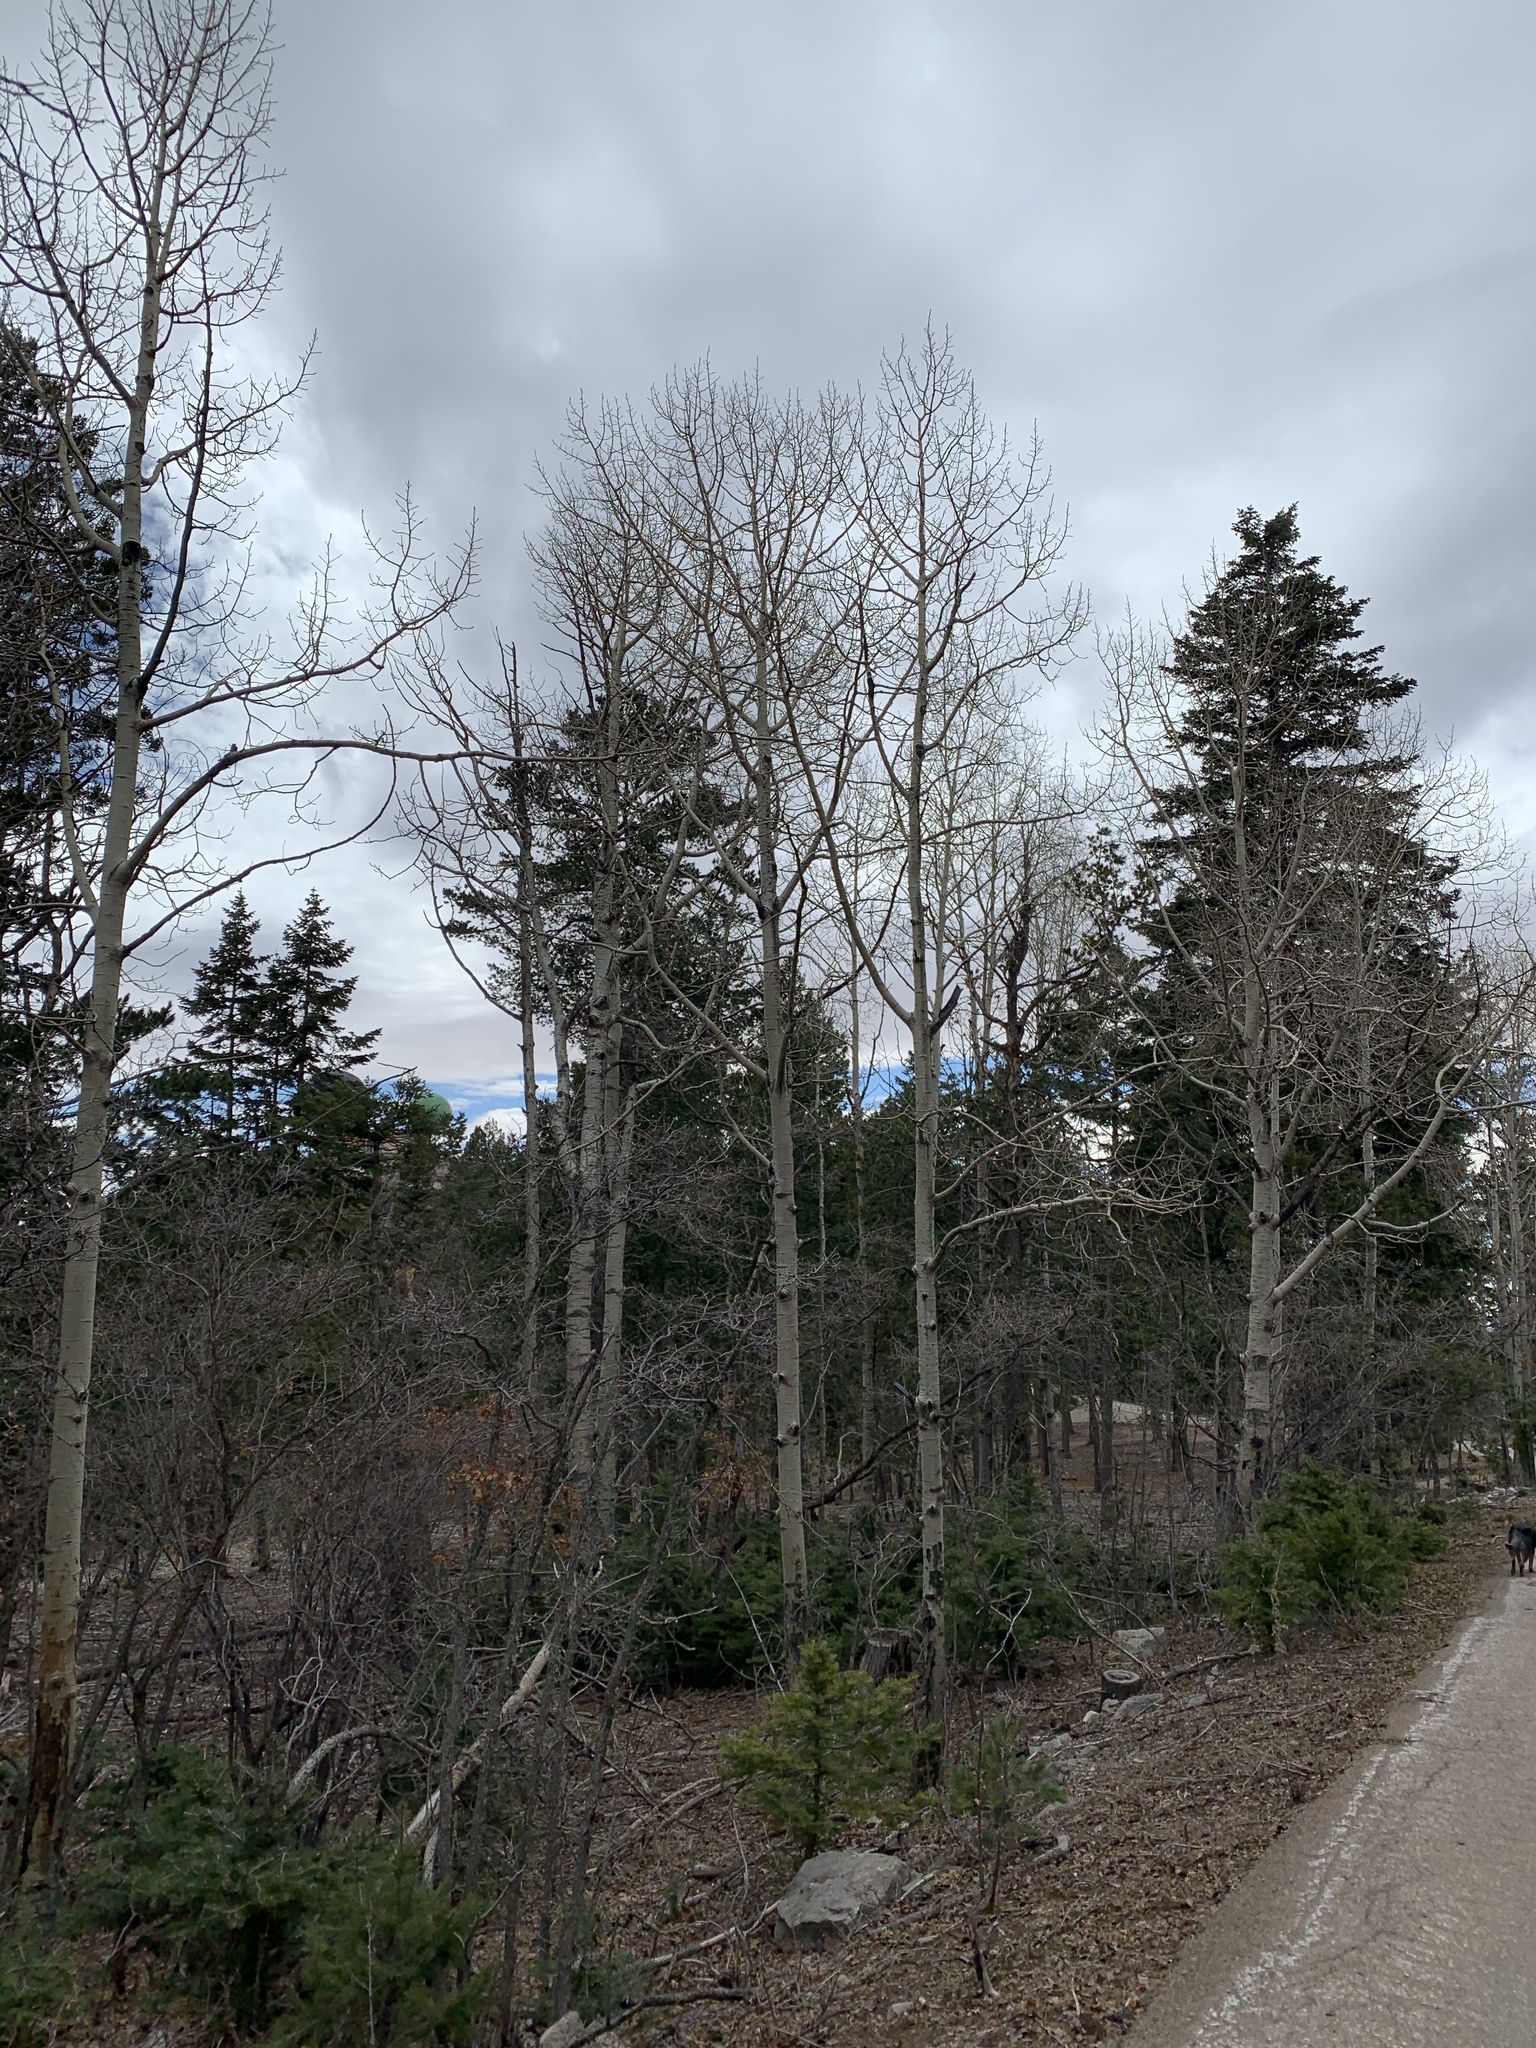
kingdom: Plantae
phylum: Tracheophyta
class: Magnoliopsida
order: Malpighiales
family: Salicaceae
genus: Populus
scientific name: Populus tremuloides
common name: Quaking aspen
